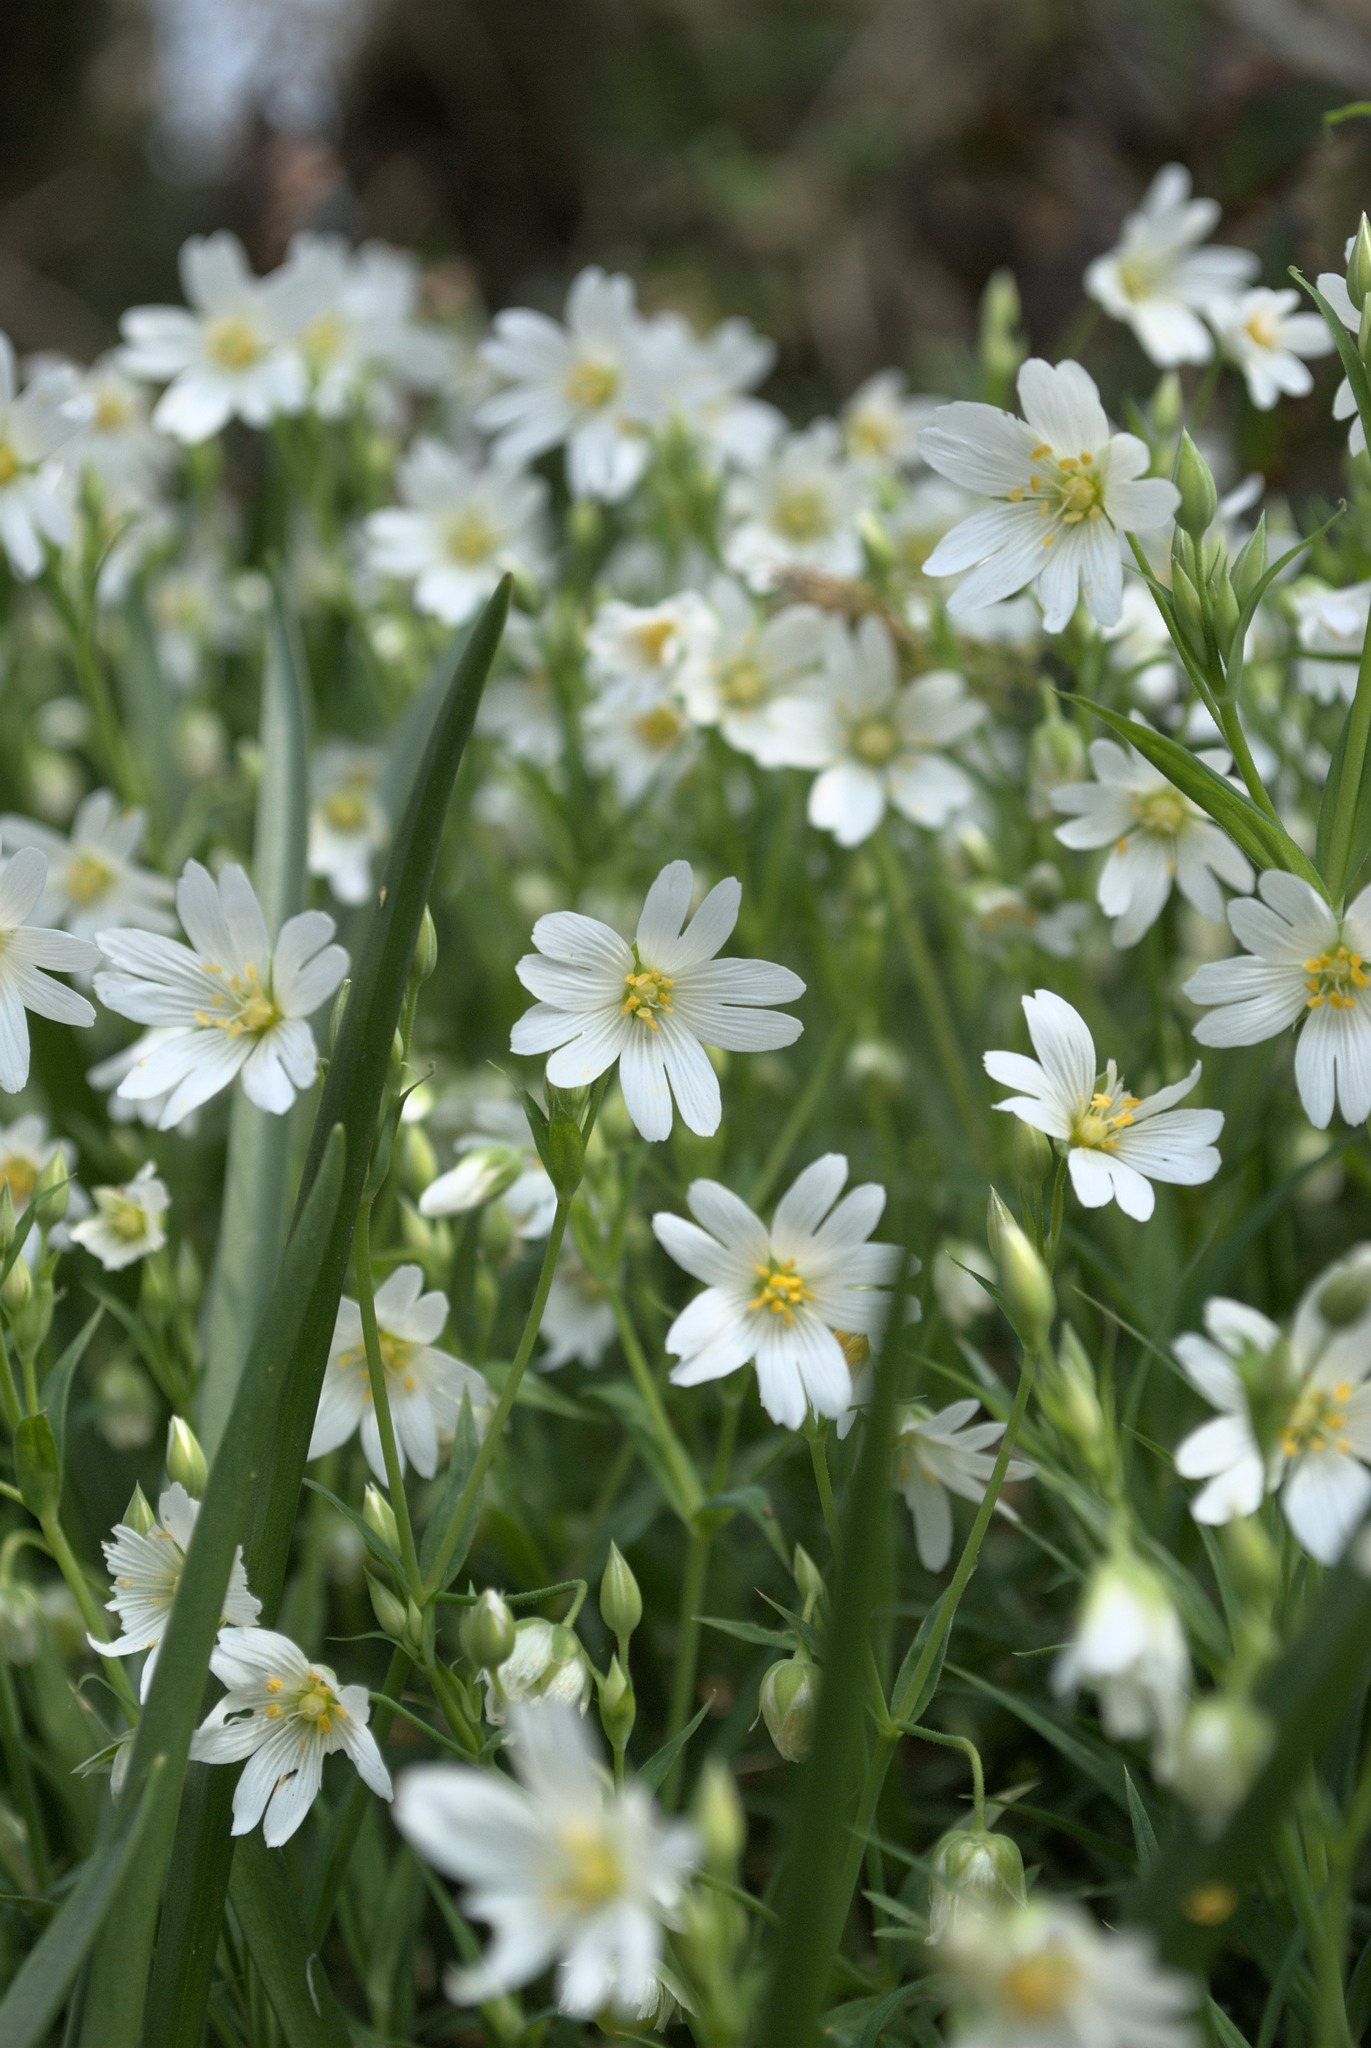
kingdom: Plantae
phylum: Tracheophyta
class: Magnoliopsida
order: Caryophyllales
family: Caryophyllaceae
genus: Rabelera
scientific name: Rabelera holostea
